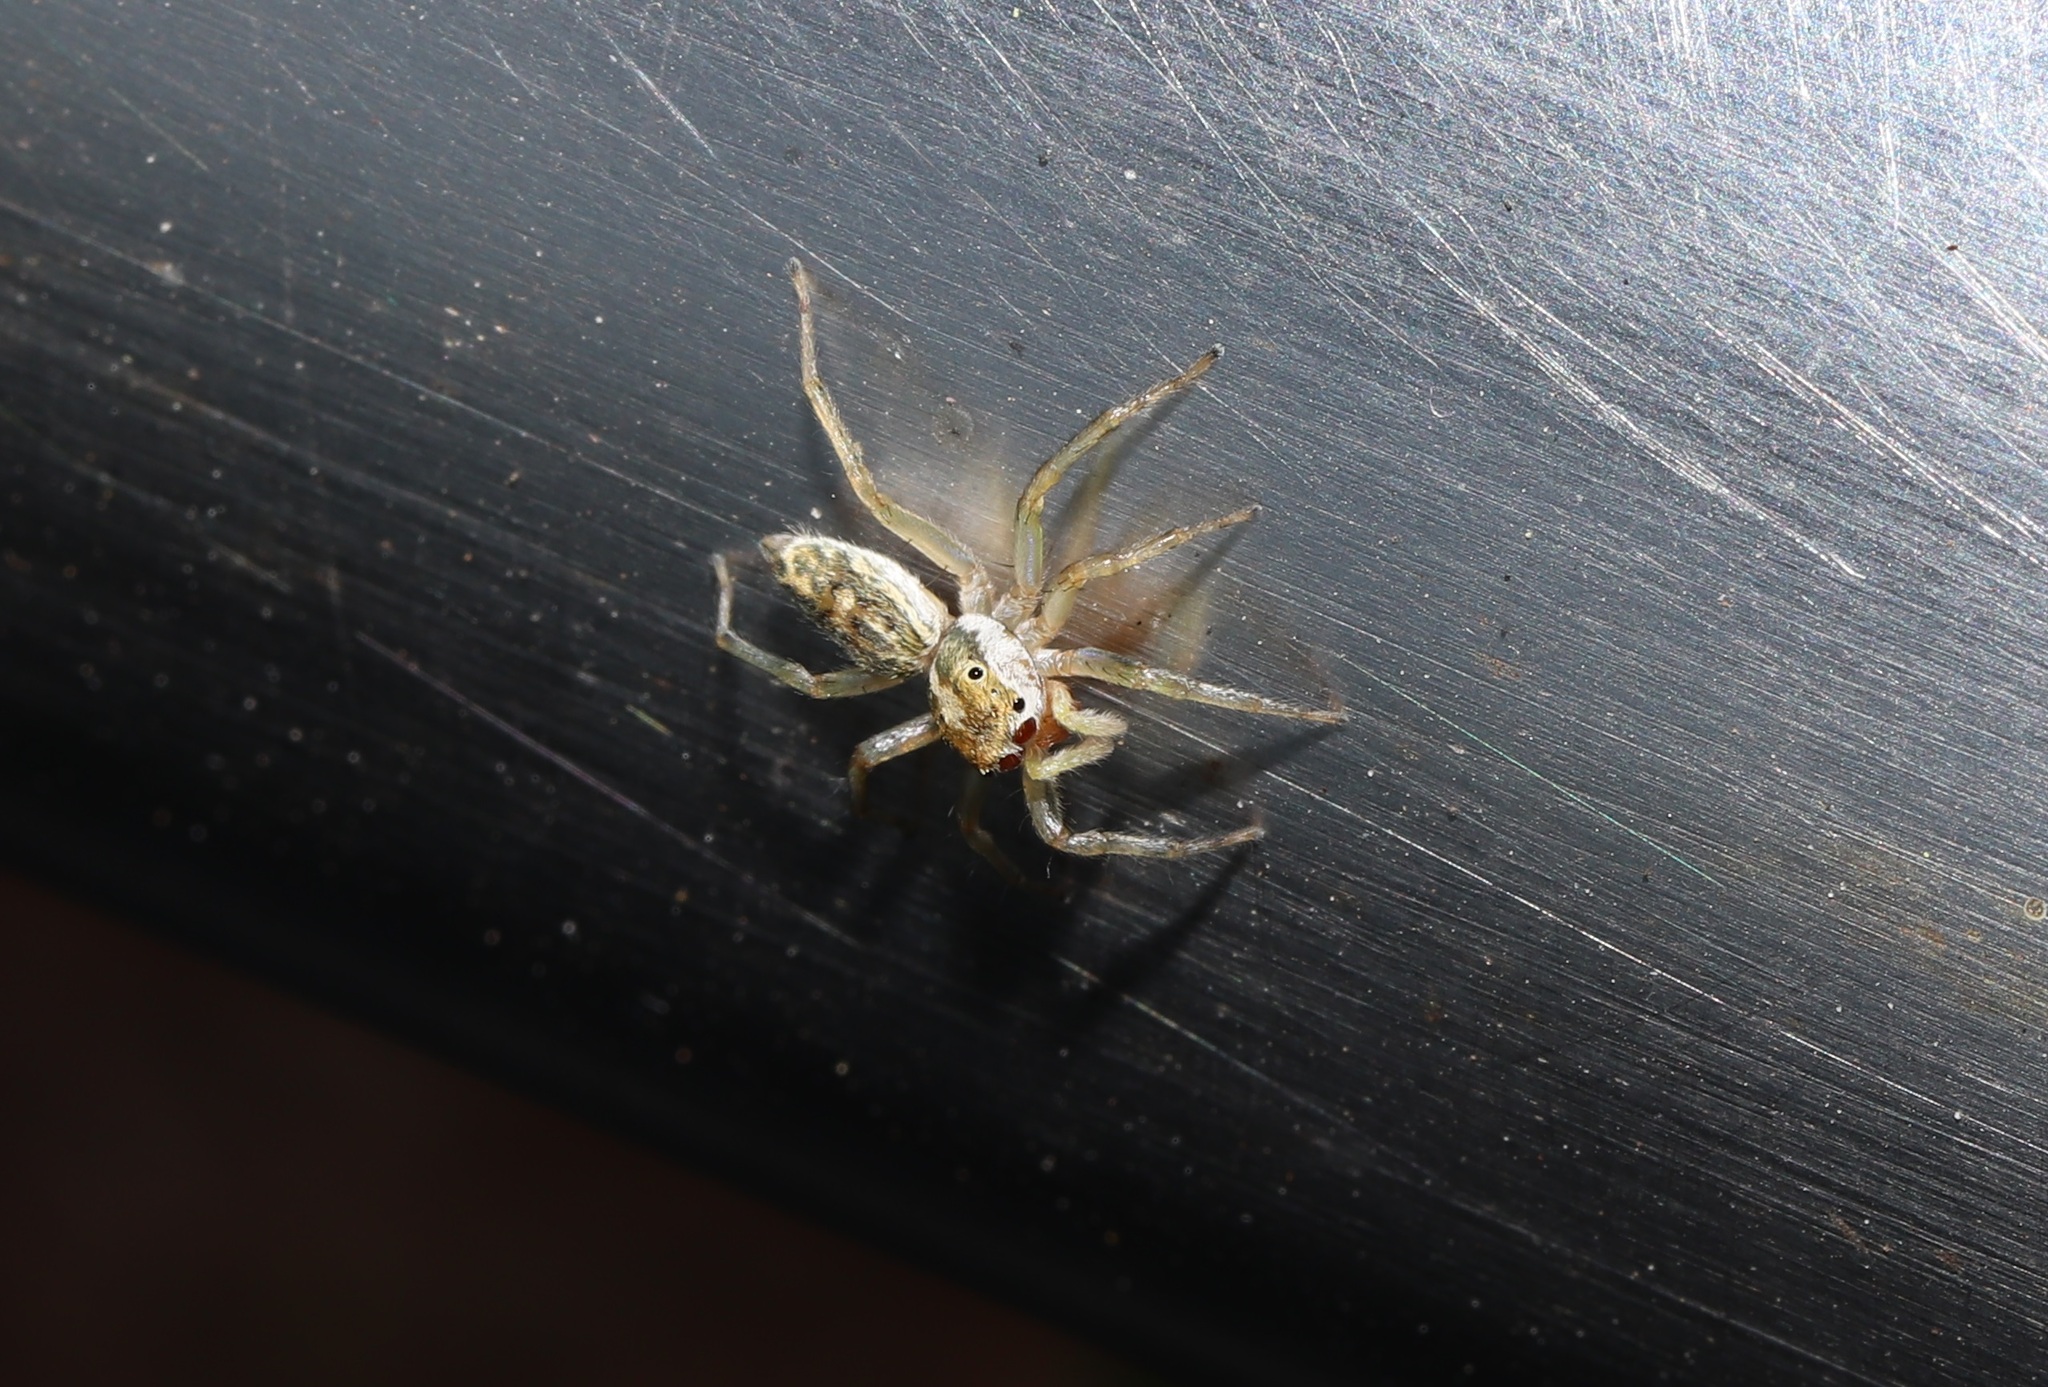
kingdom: Animalia
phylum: Arthropoda
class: Arachnida
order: Araneae
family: Salticidae
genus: Phintella
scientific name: Phintella abnormis
